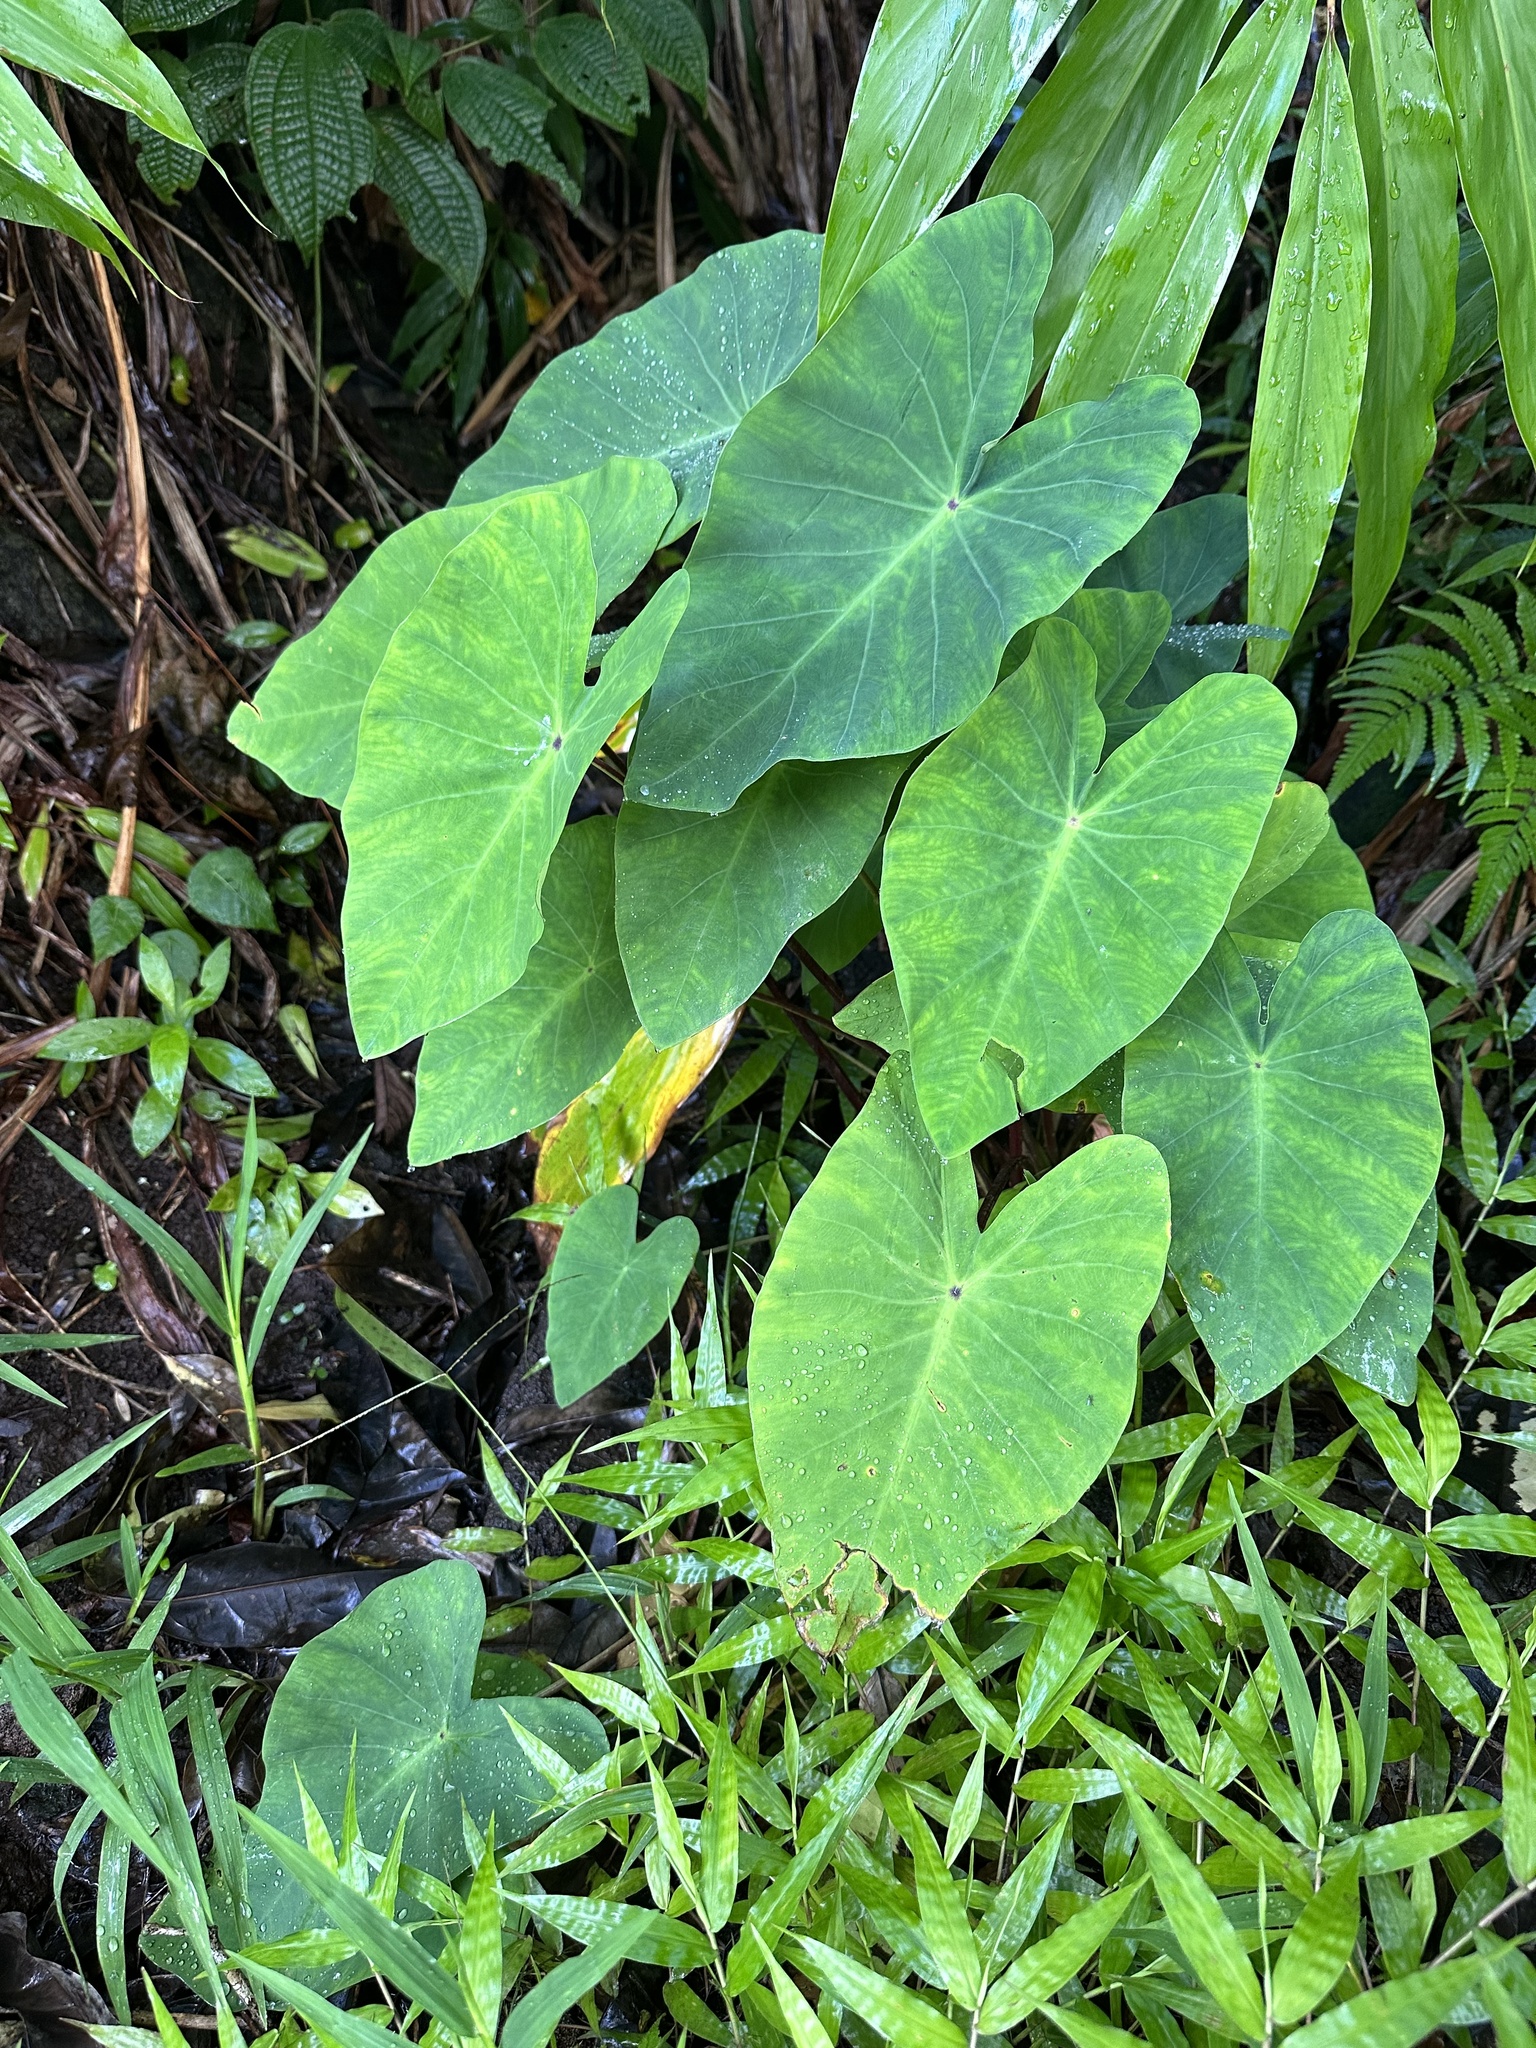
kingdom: Plantae
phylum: Tracheophyta
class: Liliopsida
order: Alismatales
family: Araceae
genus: Colocasia
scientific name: Colocasia esculenta
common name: Taro
